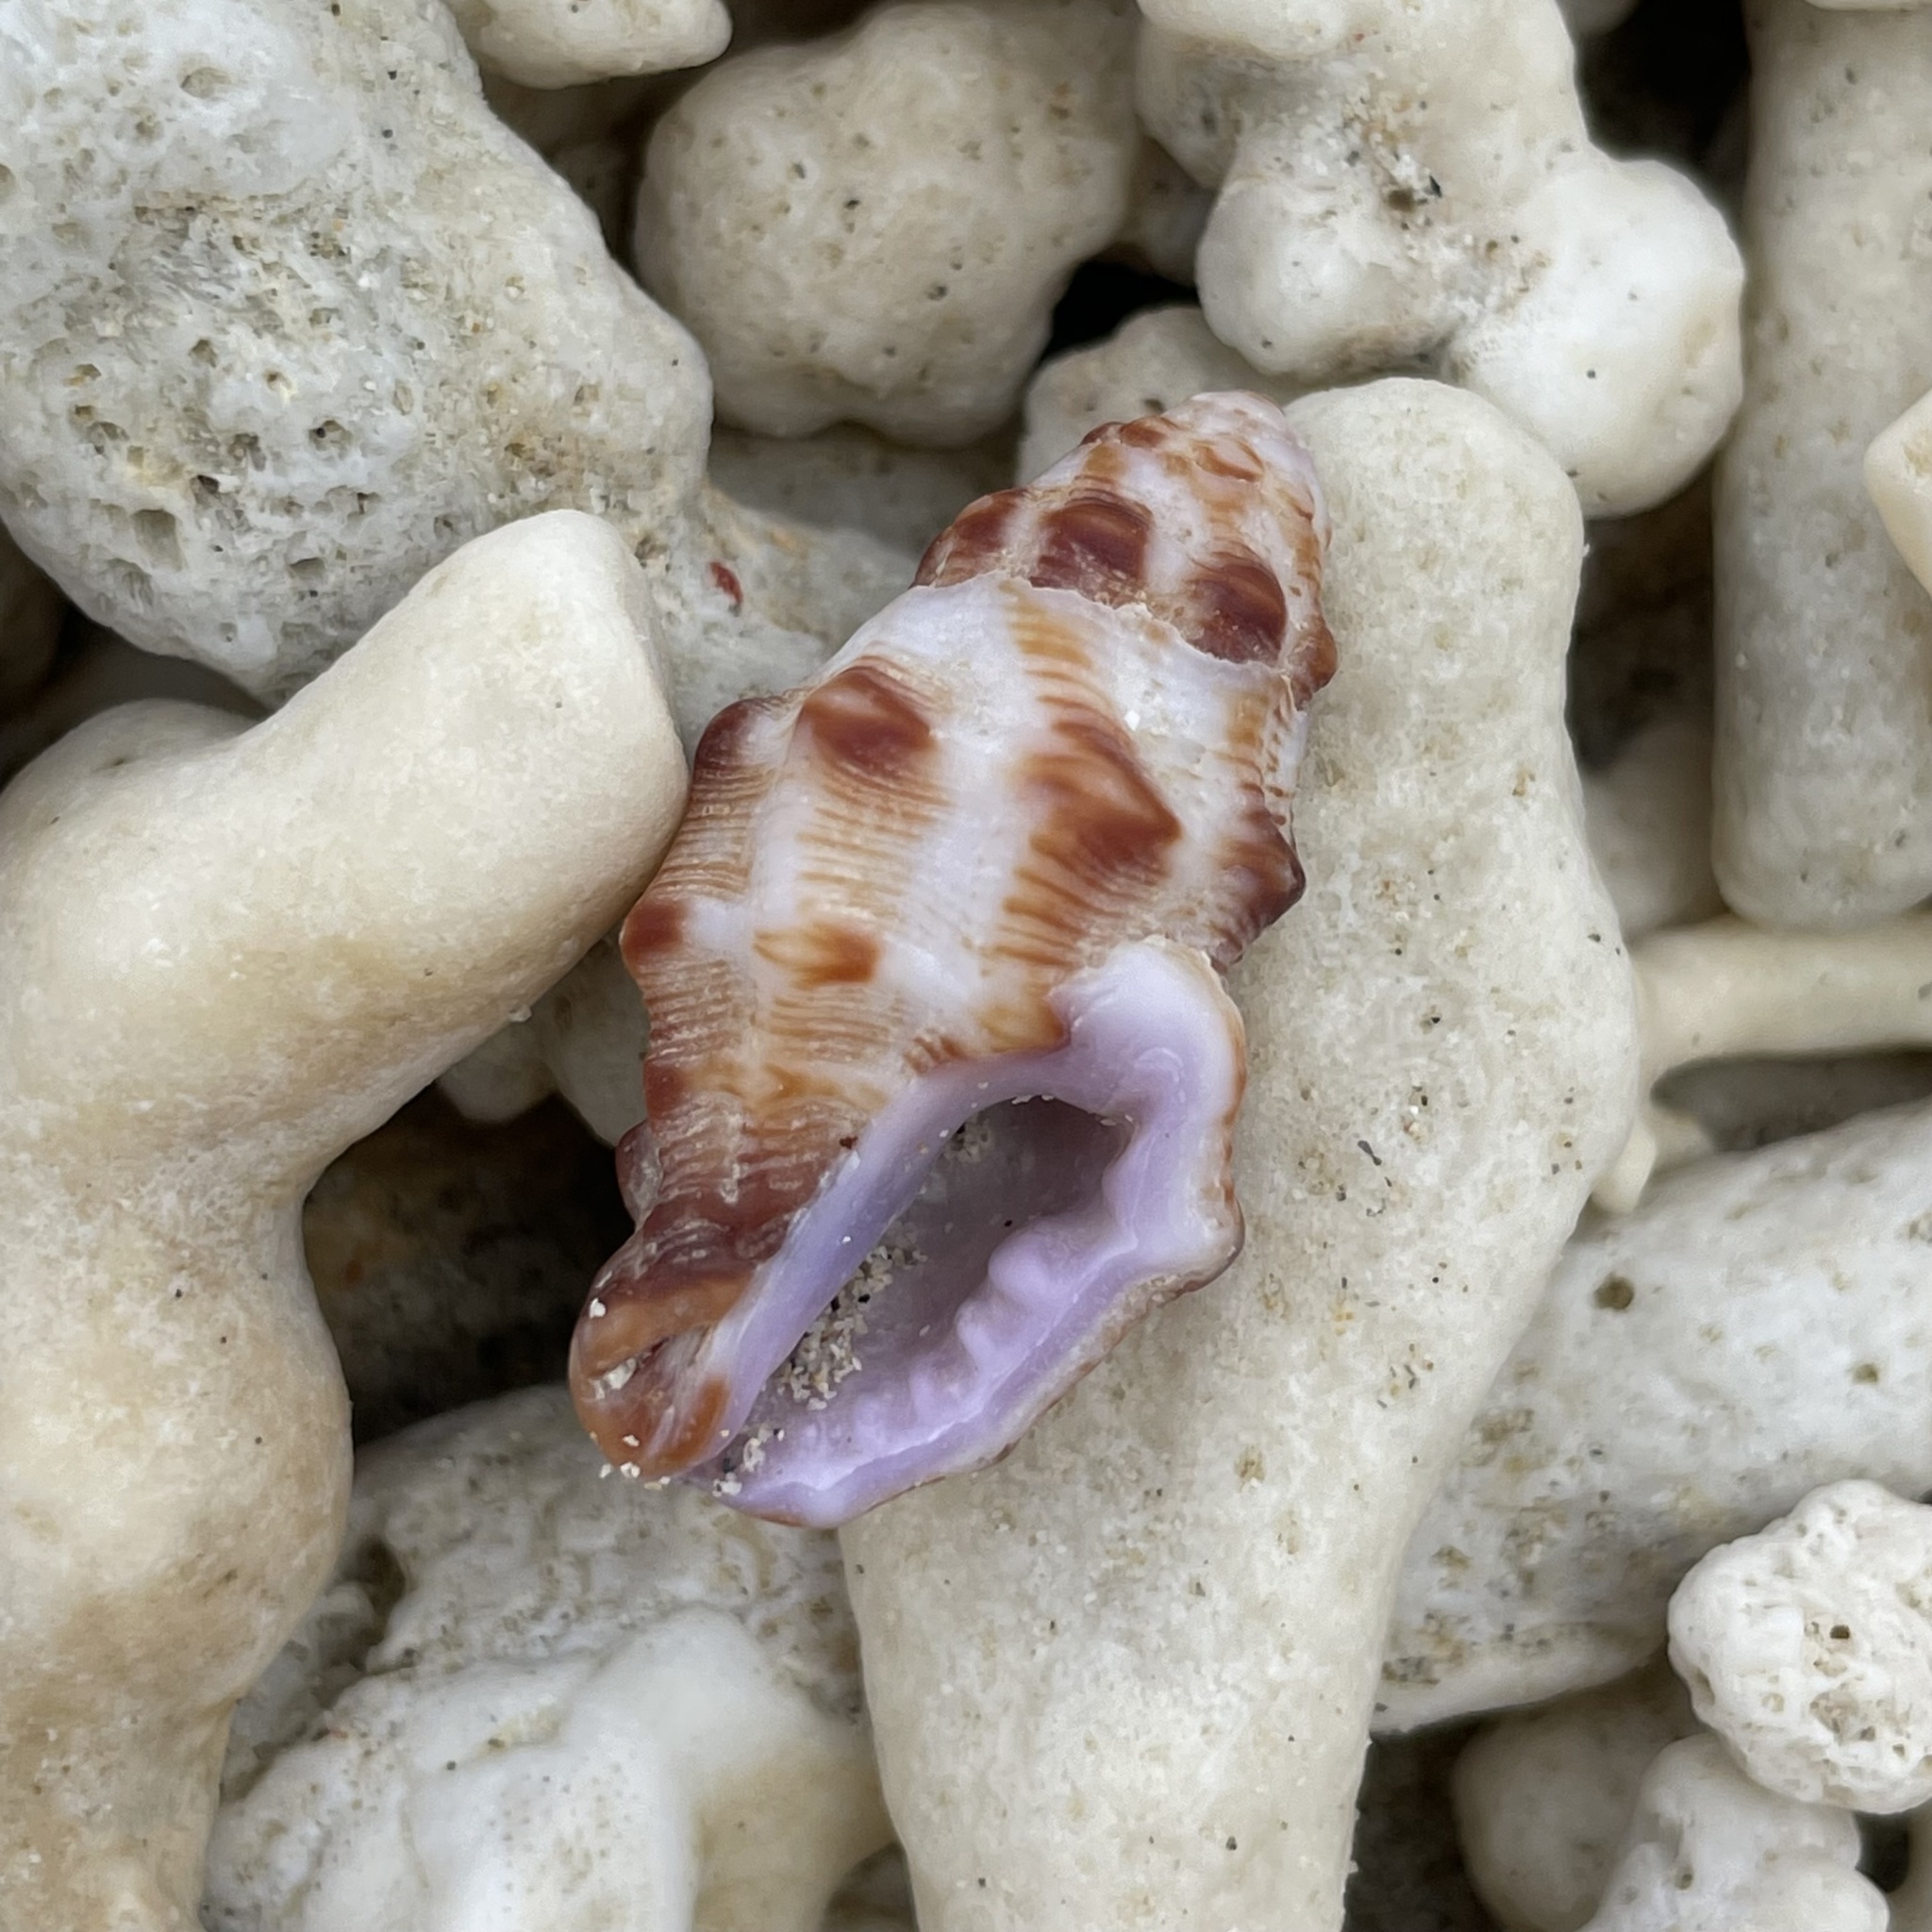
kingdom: Animalia
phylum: Mollusca
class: Gastropoda
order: Neogastropoda
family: Muricidae
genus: Morula
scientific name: Morula spinosa
